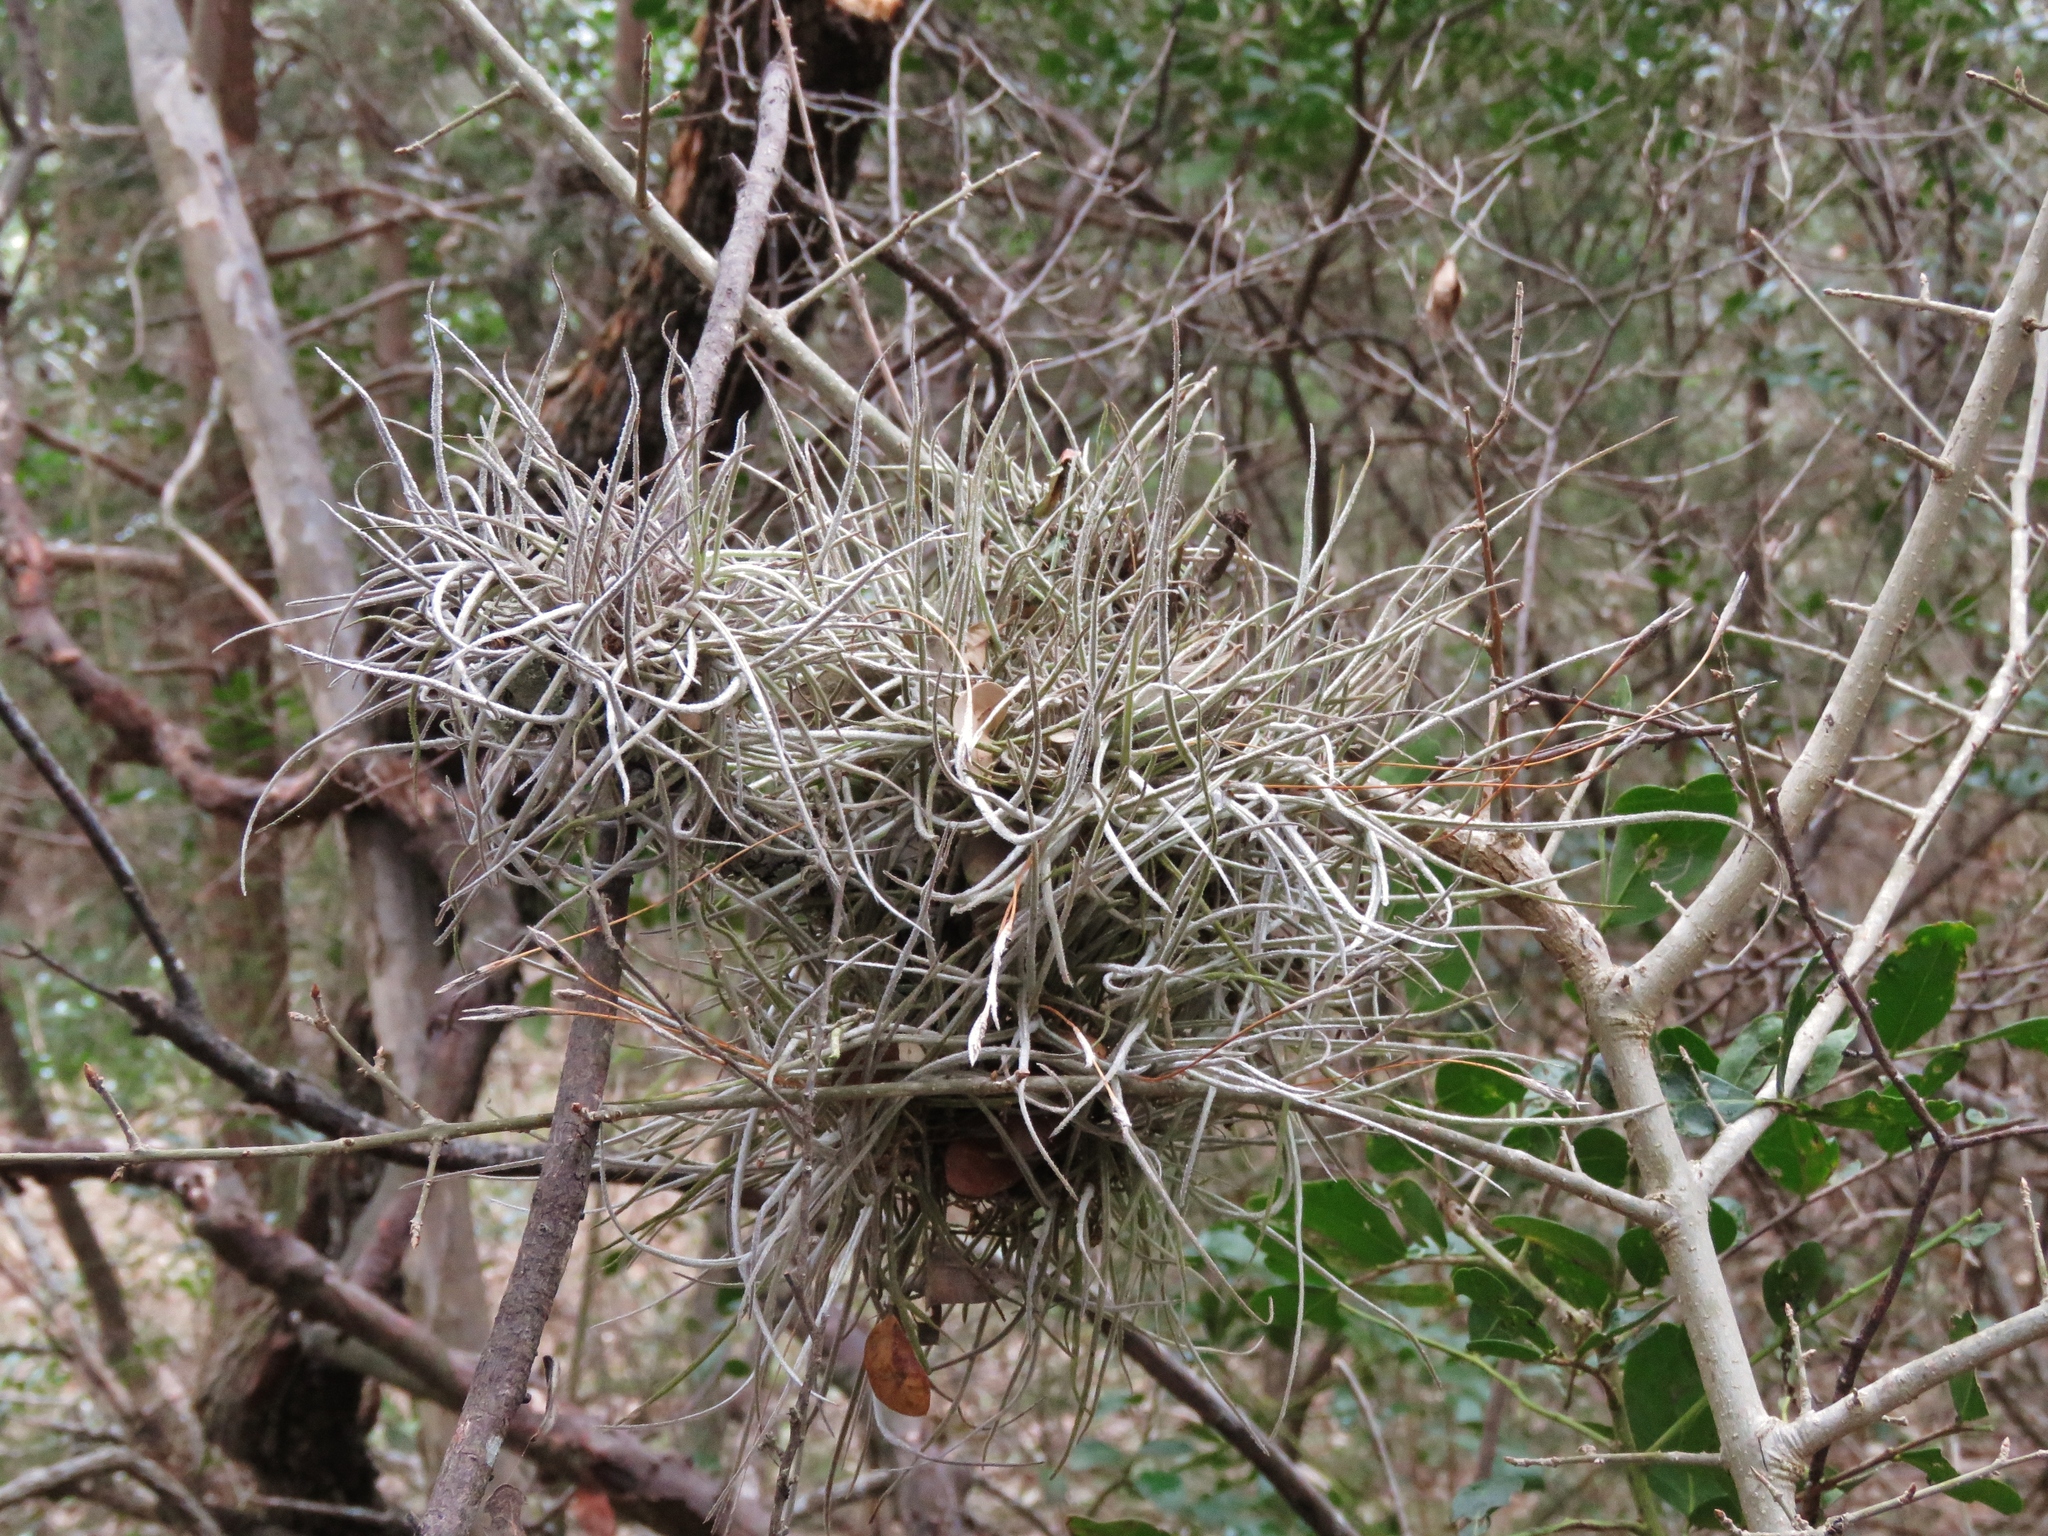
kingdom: Plantae
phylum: Tracheophyta
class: Liliopsida
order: Poales
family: Bromeliaceae
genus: Tillandsia
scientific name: Tillandsia recurvata
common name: Small ballmoss
